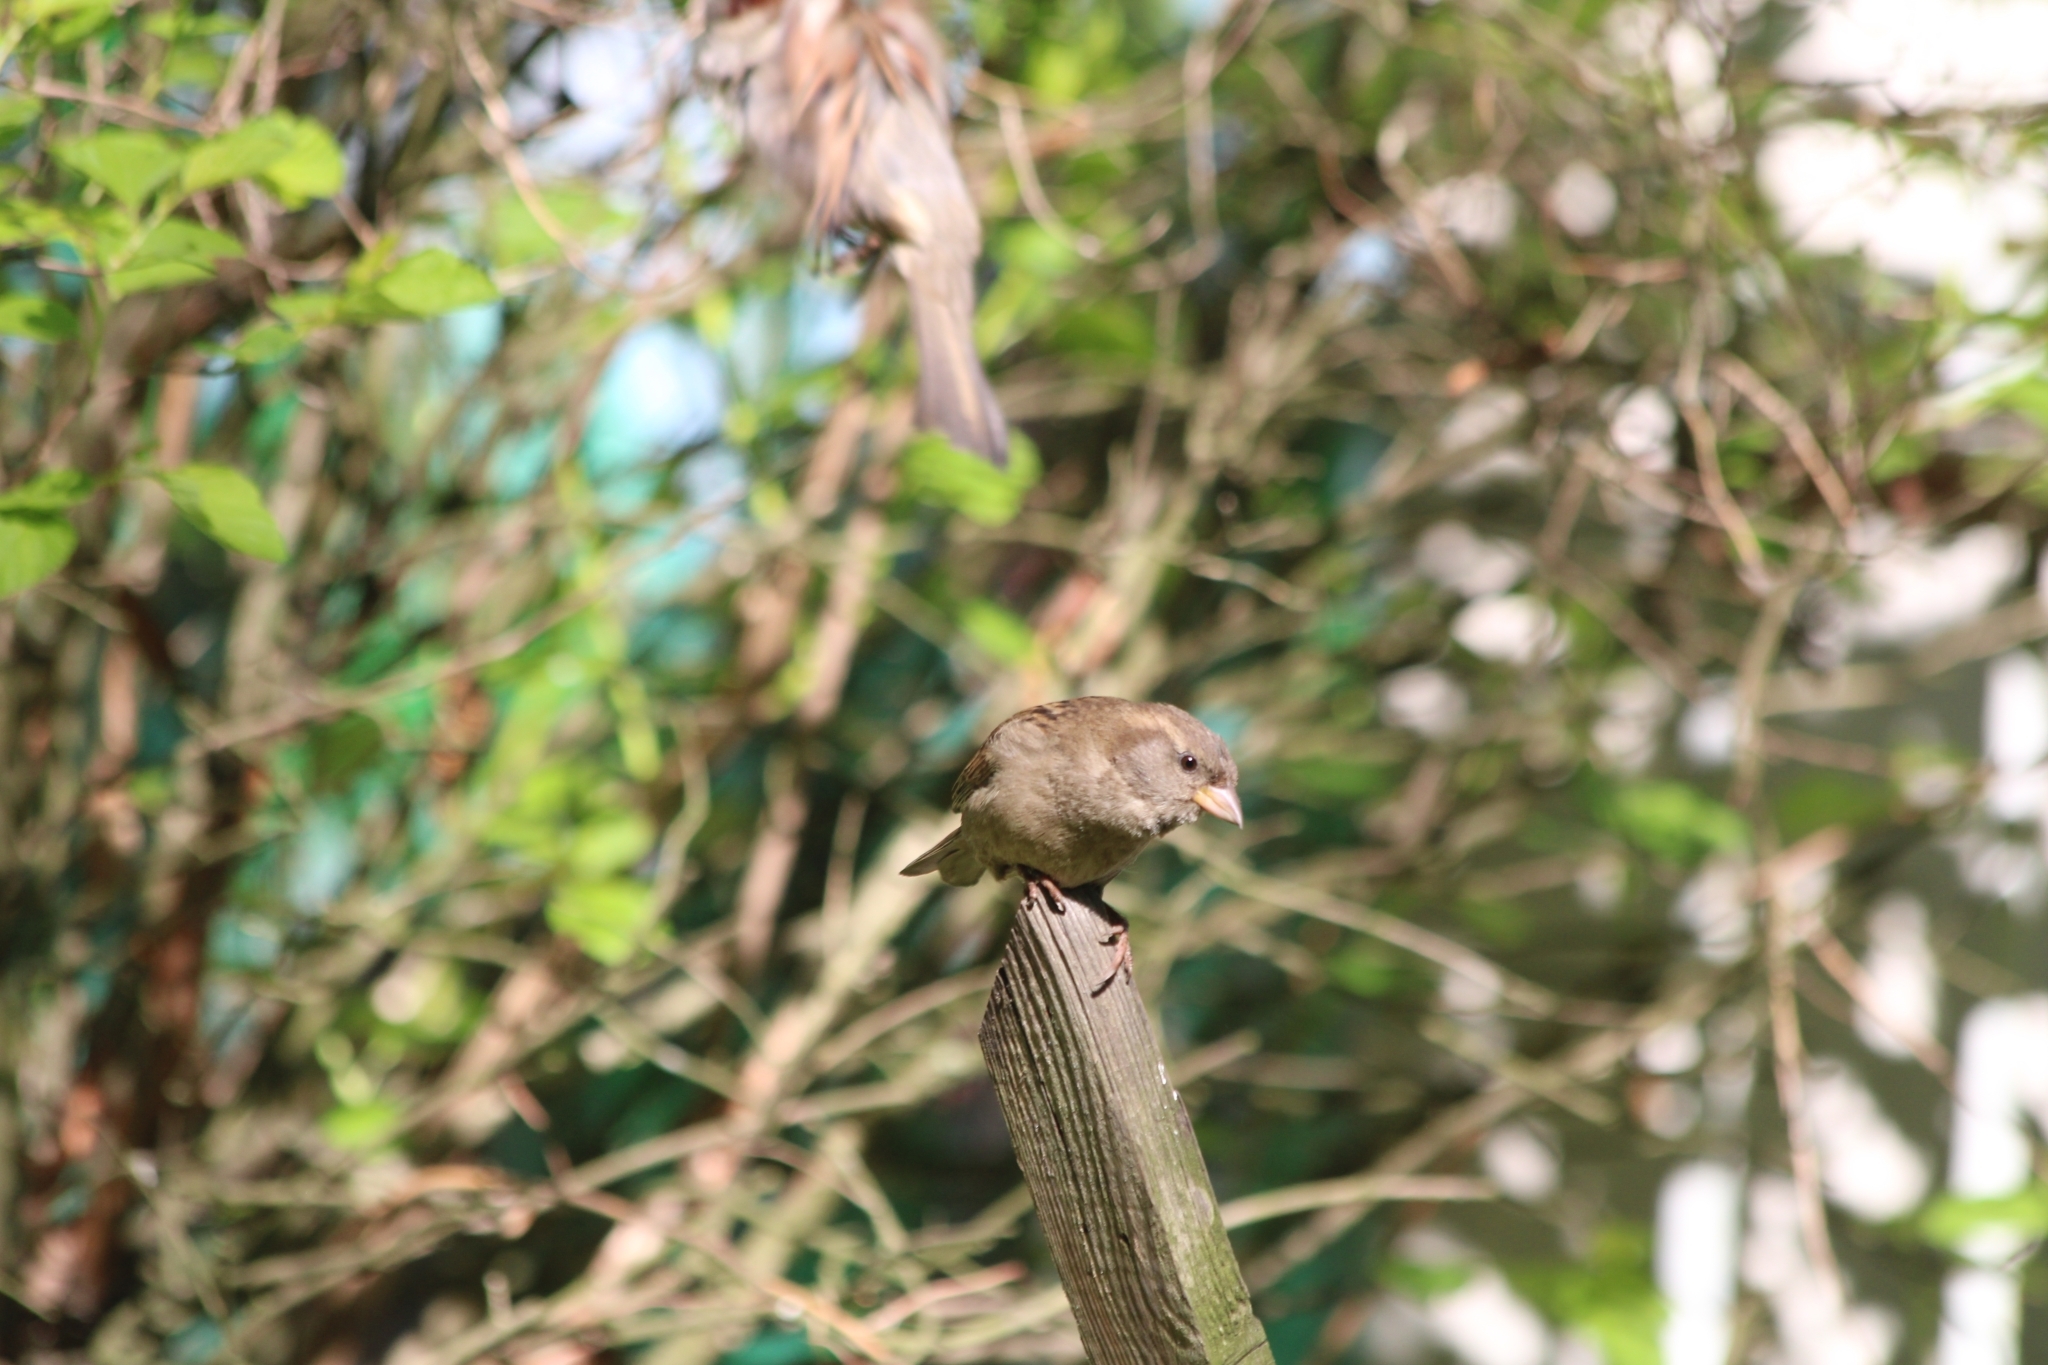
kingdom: Animalia
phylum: Chordata
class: Aves
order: Passeriformes
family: Passeridae
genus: Passer
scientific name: Passer domesticus
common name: House sparrow
